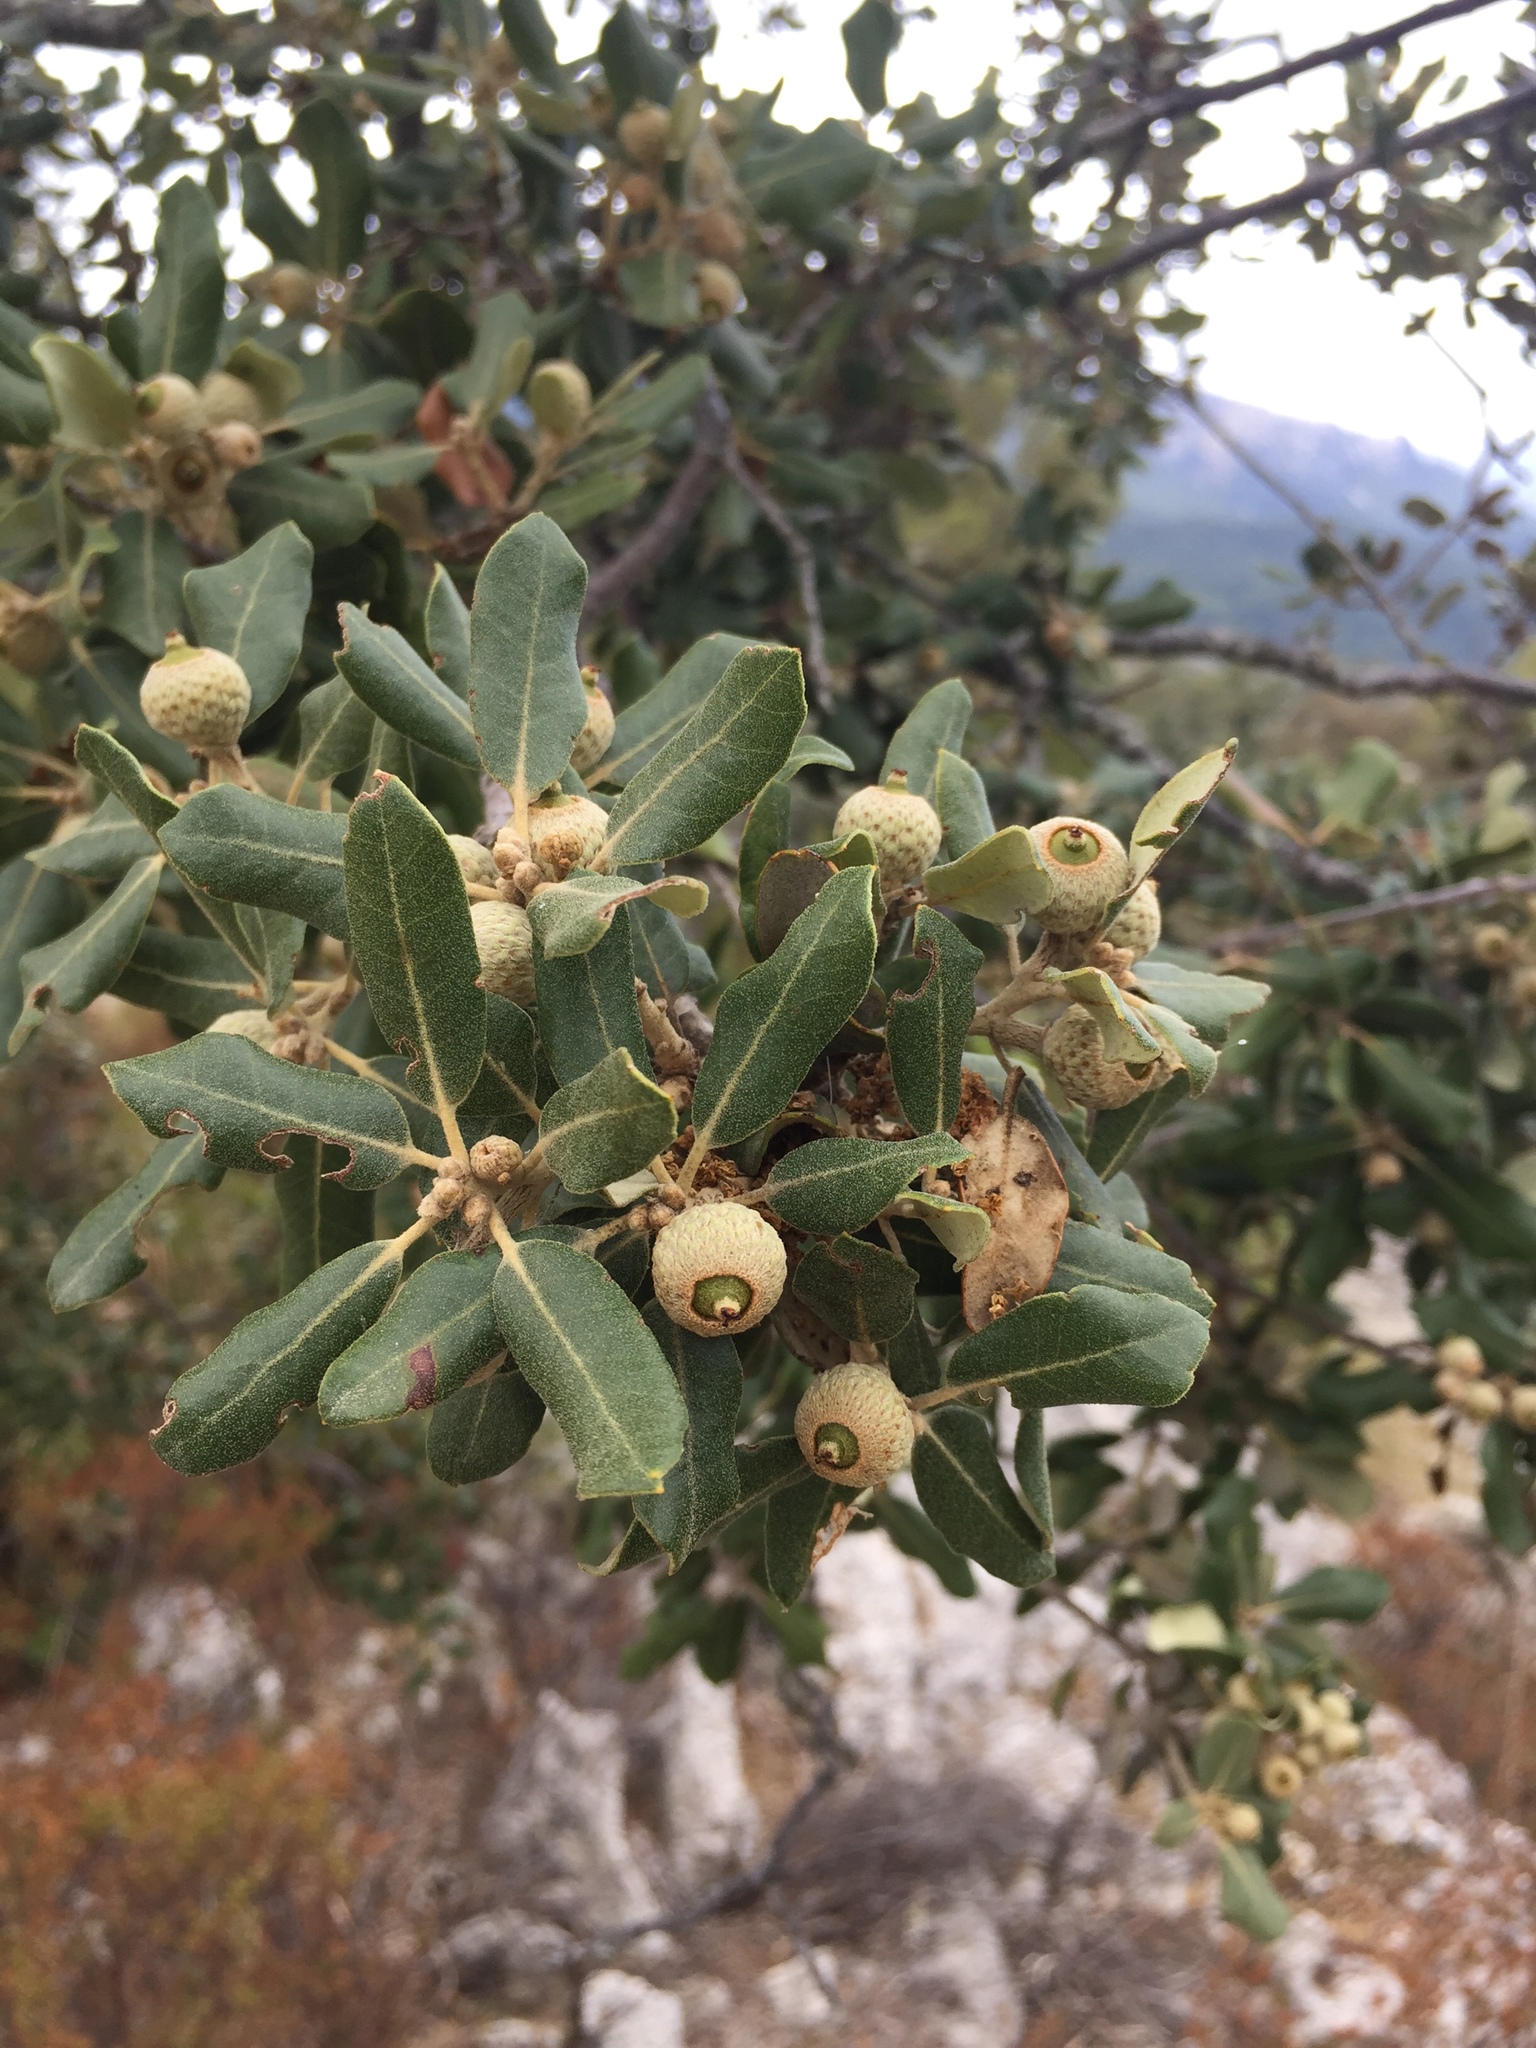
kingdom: Plantae
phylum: Tracheophyta
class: Magnoliopsida
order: Fagales
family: Fagaceae
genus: Quercus
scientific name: Quercus ilex
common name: Evergreen oak
